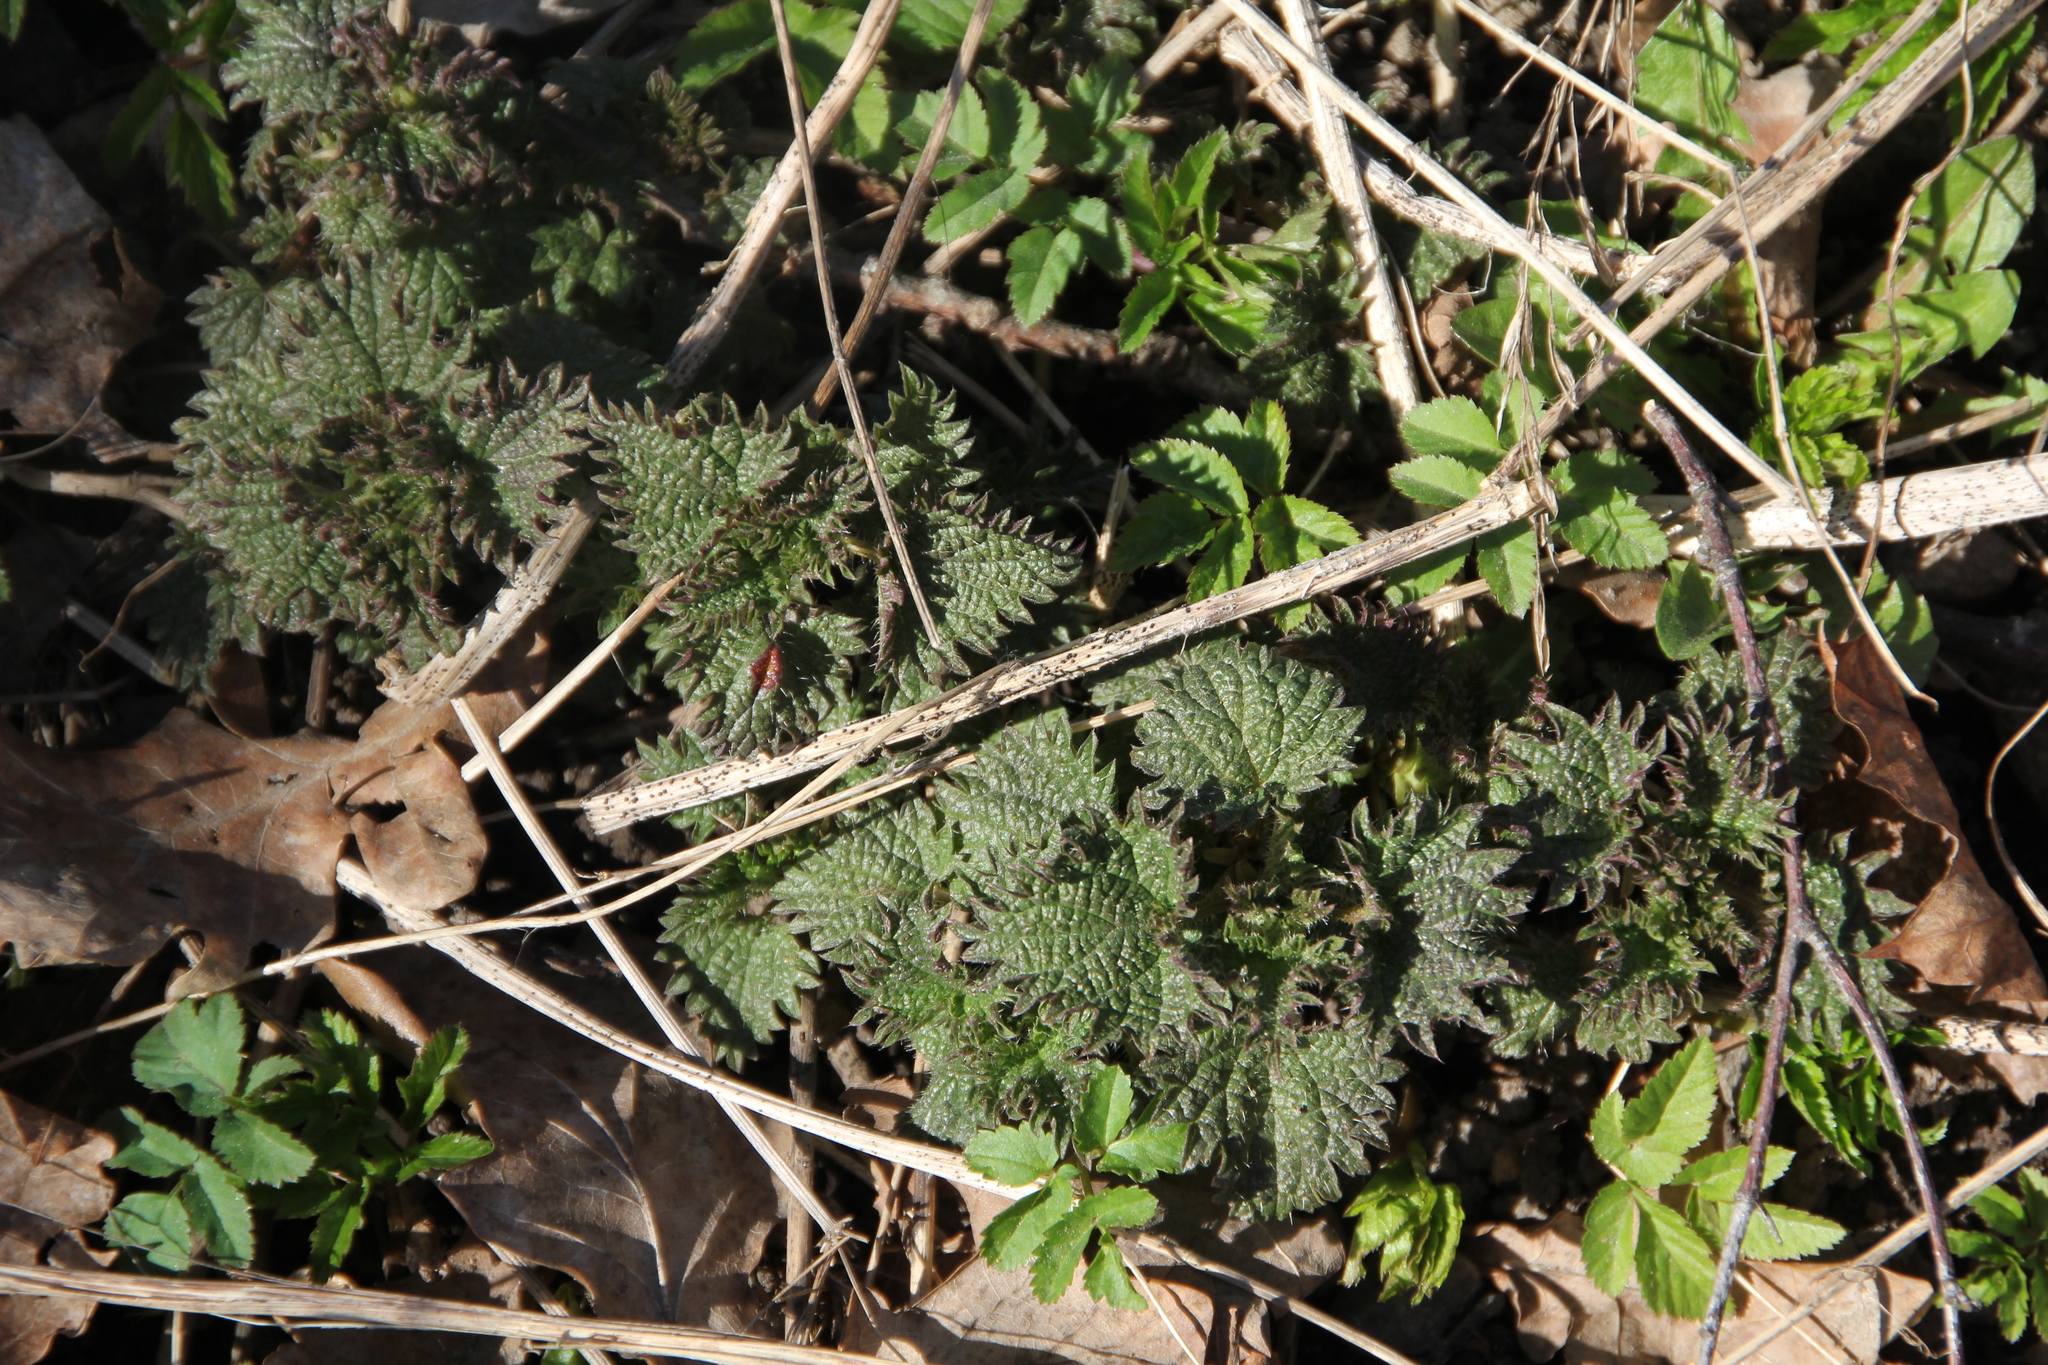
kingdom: Plantae
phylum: Tracheophyta
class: Magnoliopsida
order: Rosales
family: Urticaceae
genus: Urtica
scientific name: Urtica dioica
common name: Common nettle
